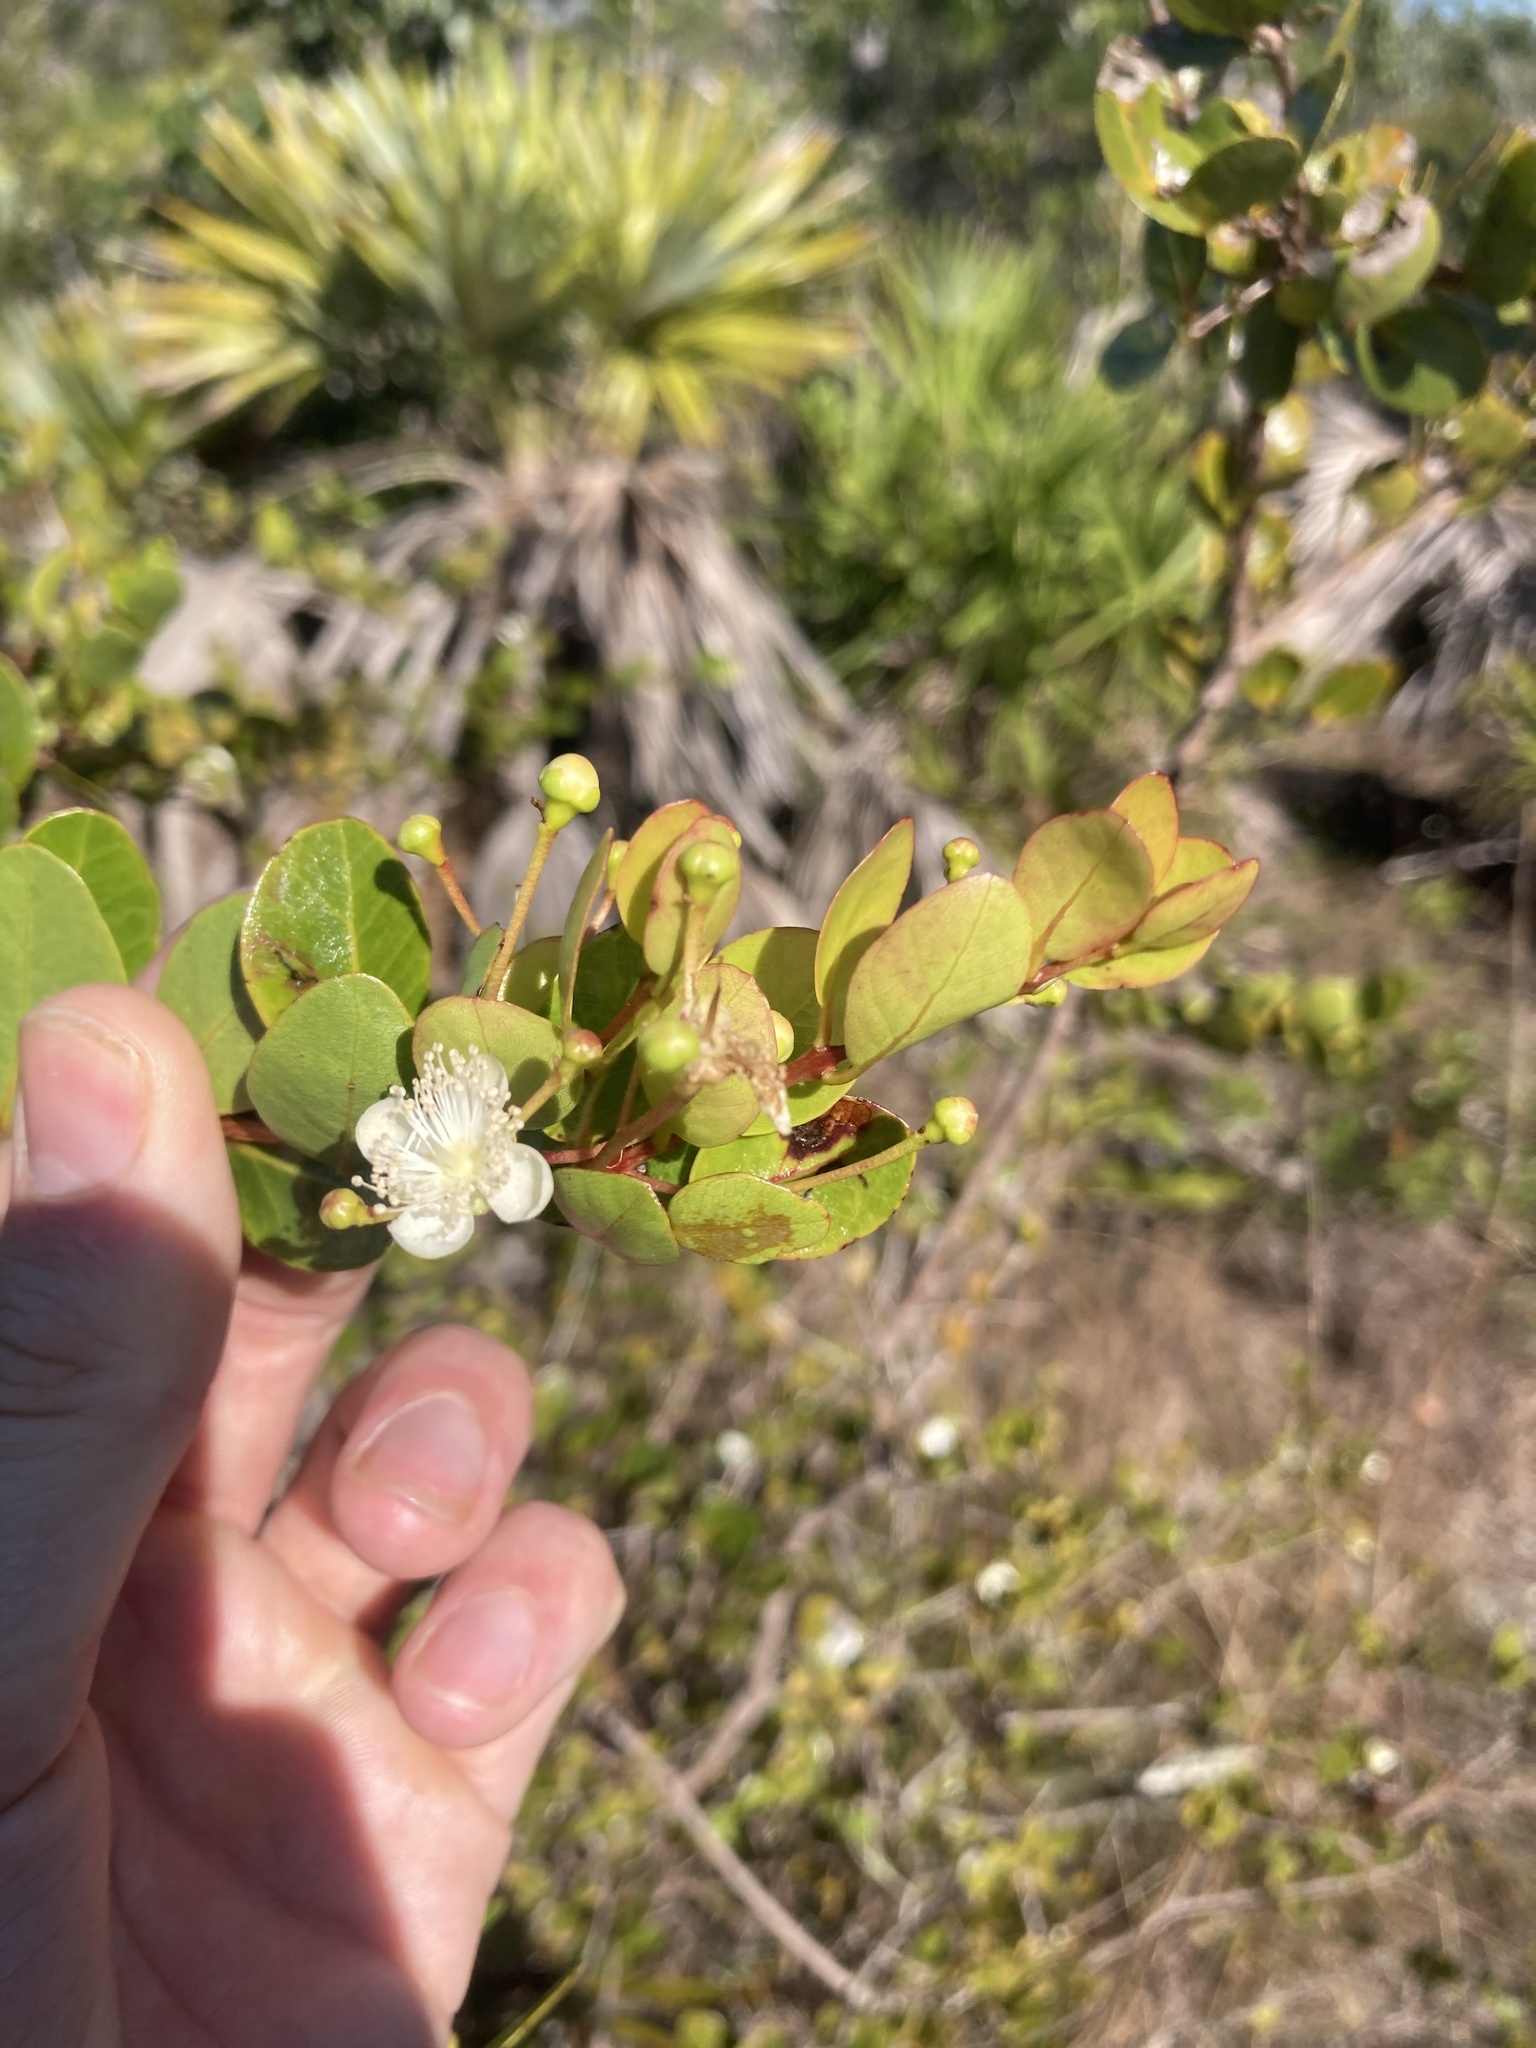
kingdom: Plantae
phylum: Tracheophyta
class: Magnoliopsida
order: Myrtales
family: Myrtaceae
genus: Mosiera
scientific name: Mosiera longipes
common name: Bahama stopper
